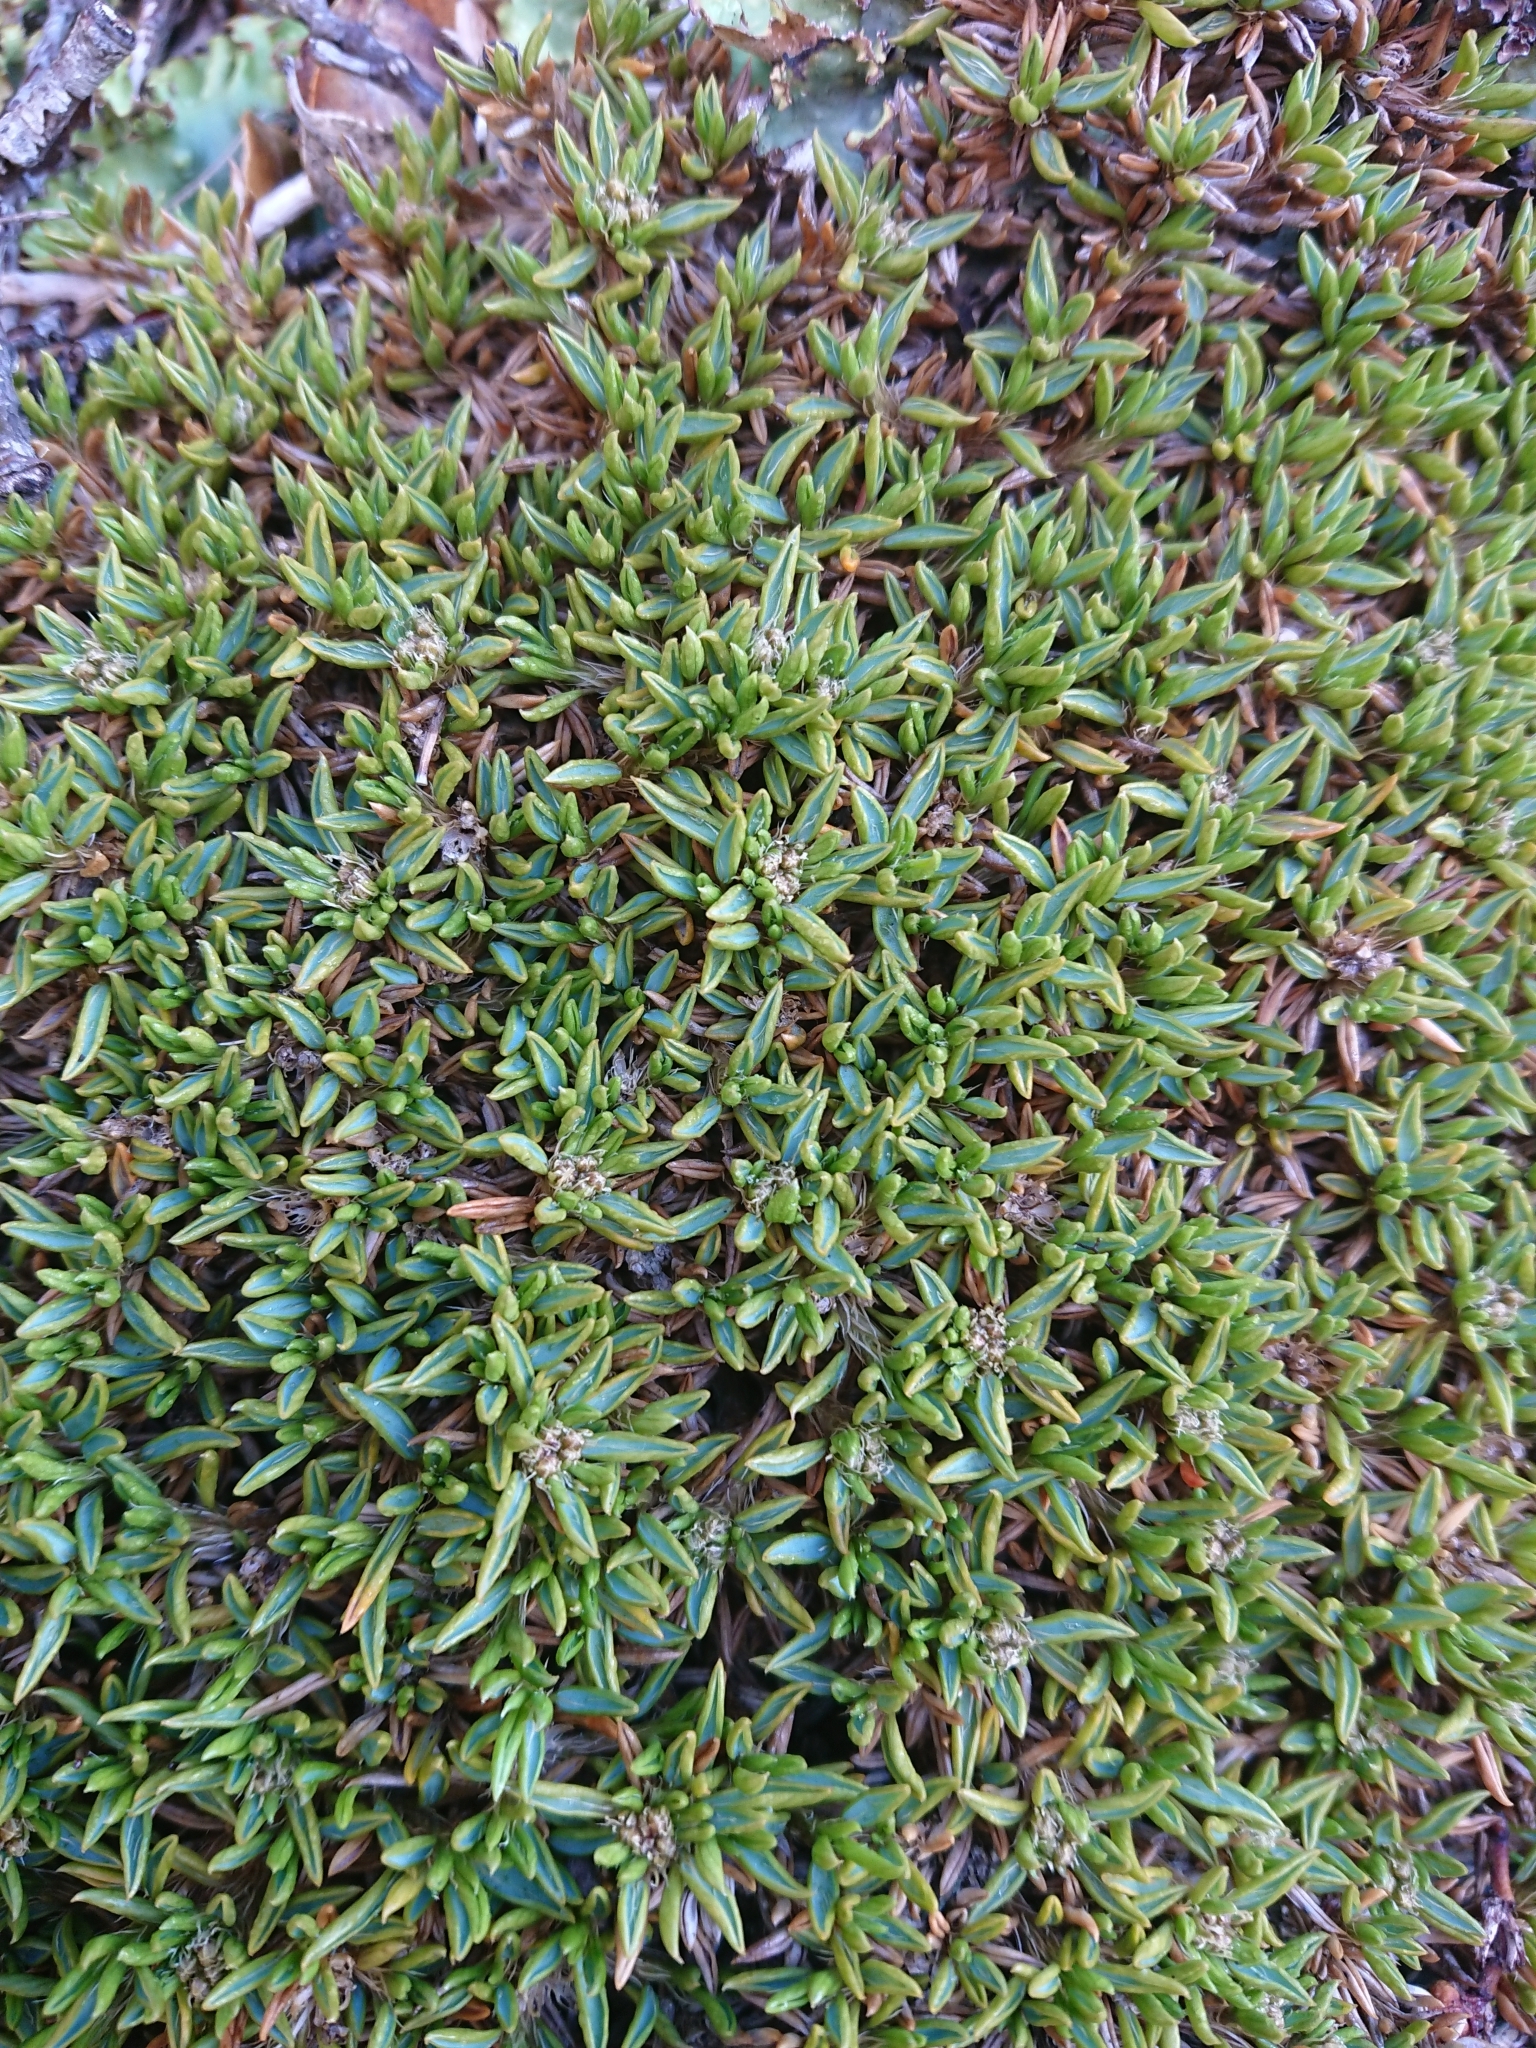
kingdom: Plantae
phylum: Tracheophyta
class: Magnoliopsida
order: Apiales
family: Apiaceae
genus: Azorella
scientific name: Azorella filamentosa
